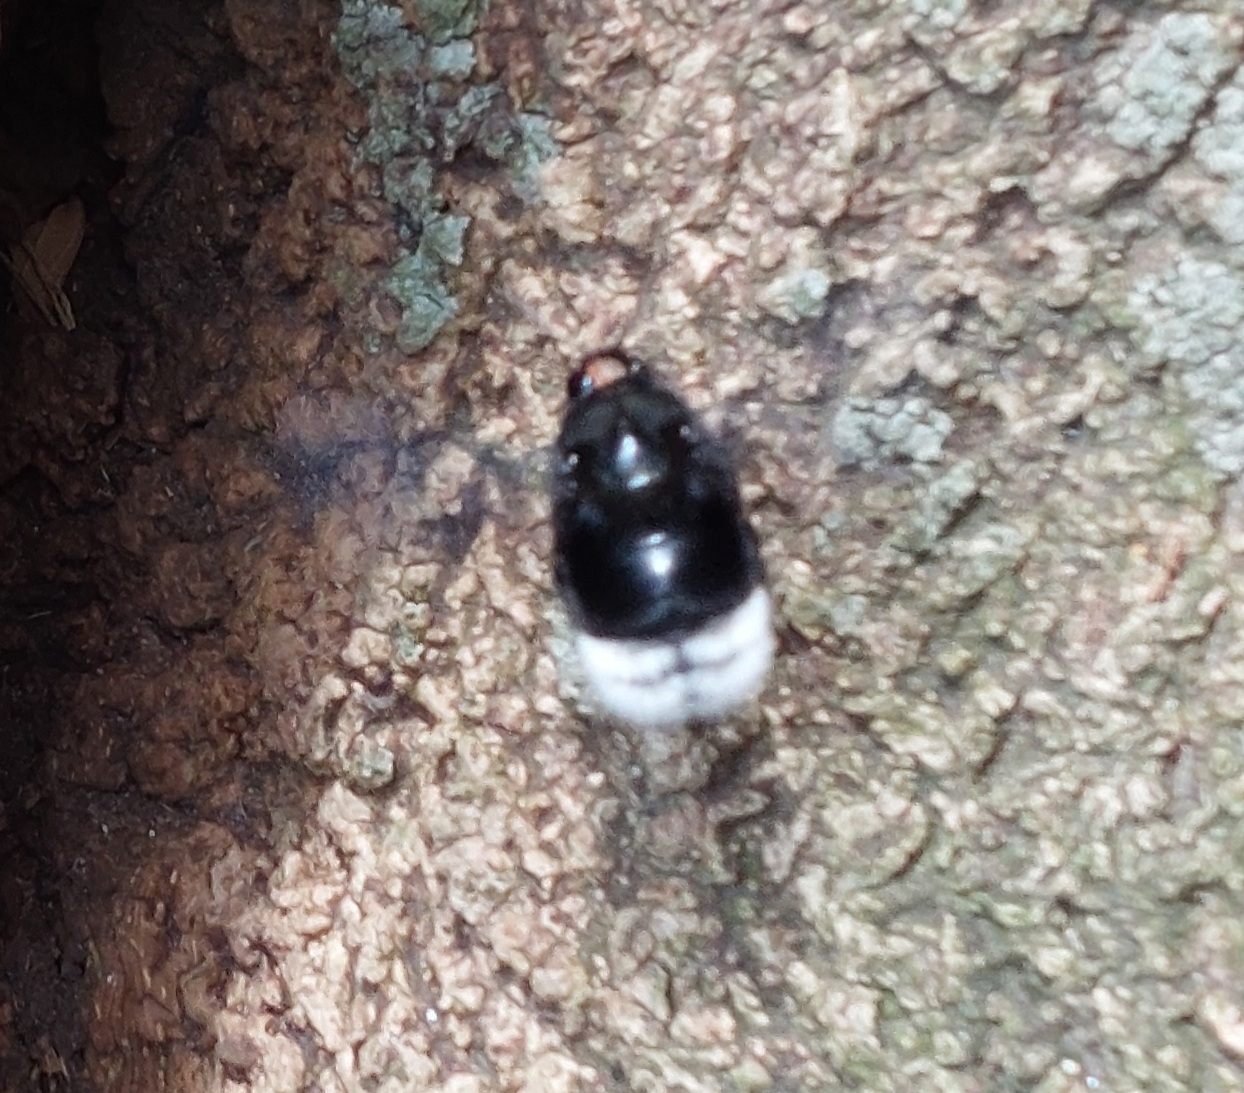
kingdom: Animalia
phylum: Arthropoda
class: Insecta
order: Hymenoptera
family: Apidae
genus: Bombus
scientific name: Bombus melaleucus
